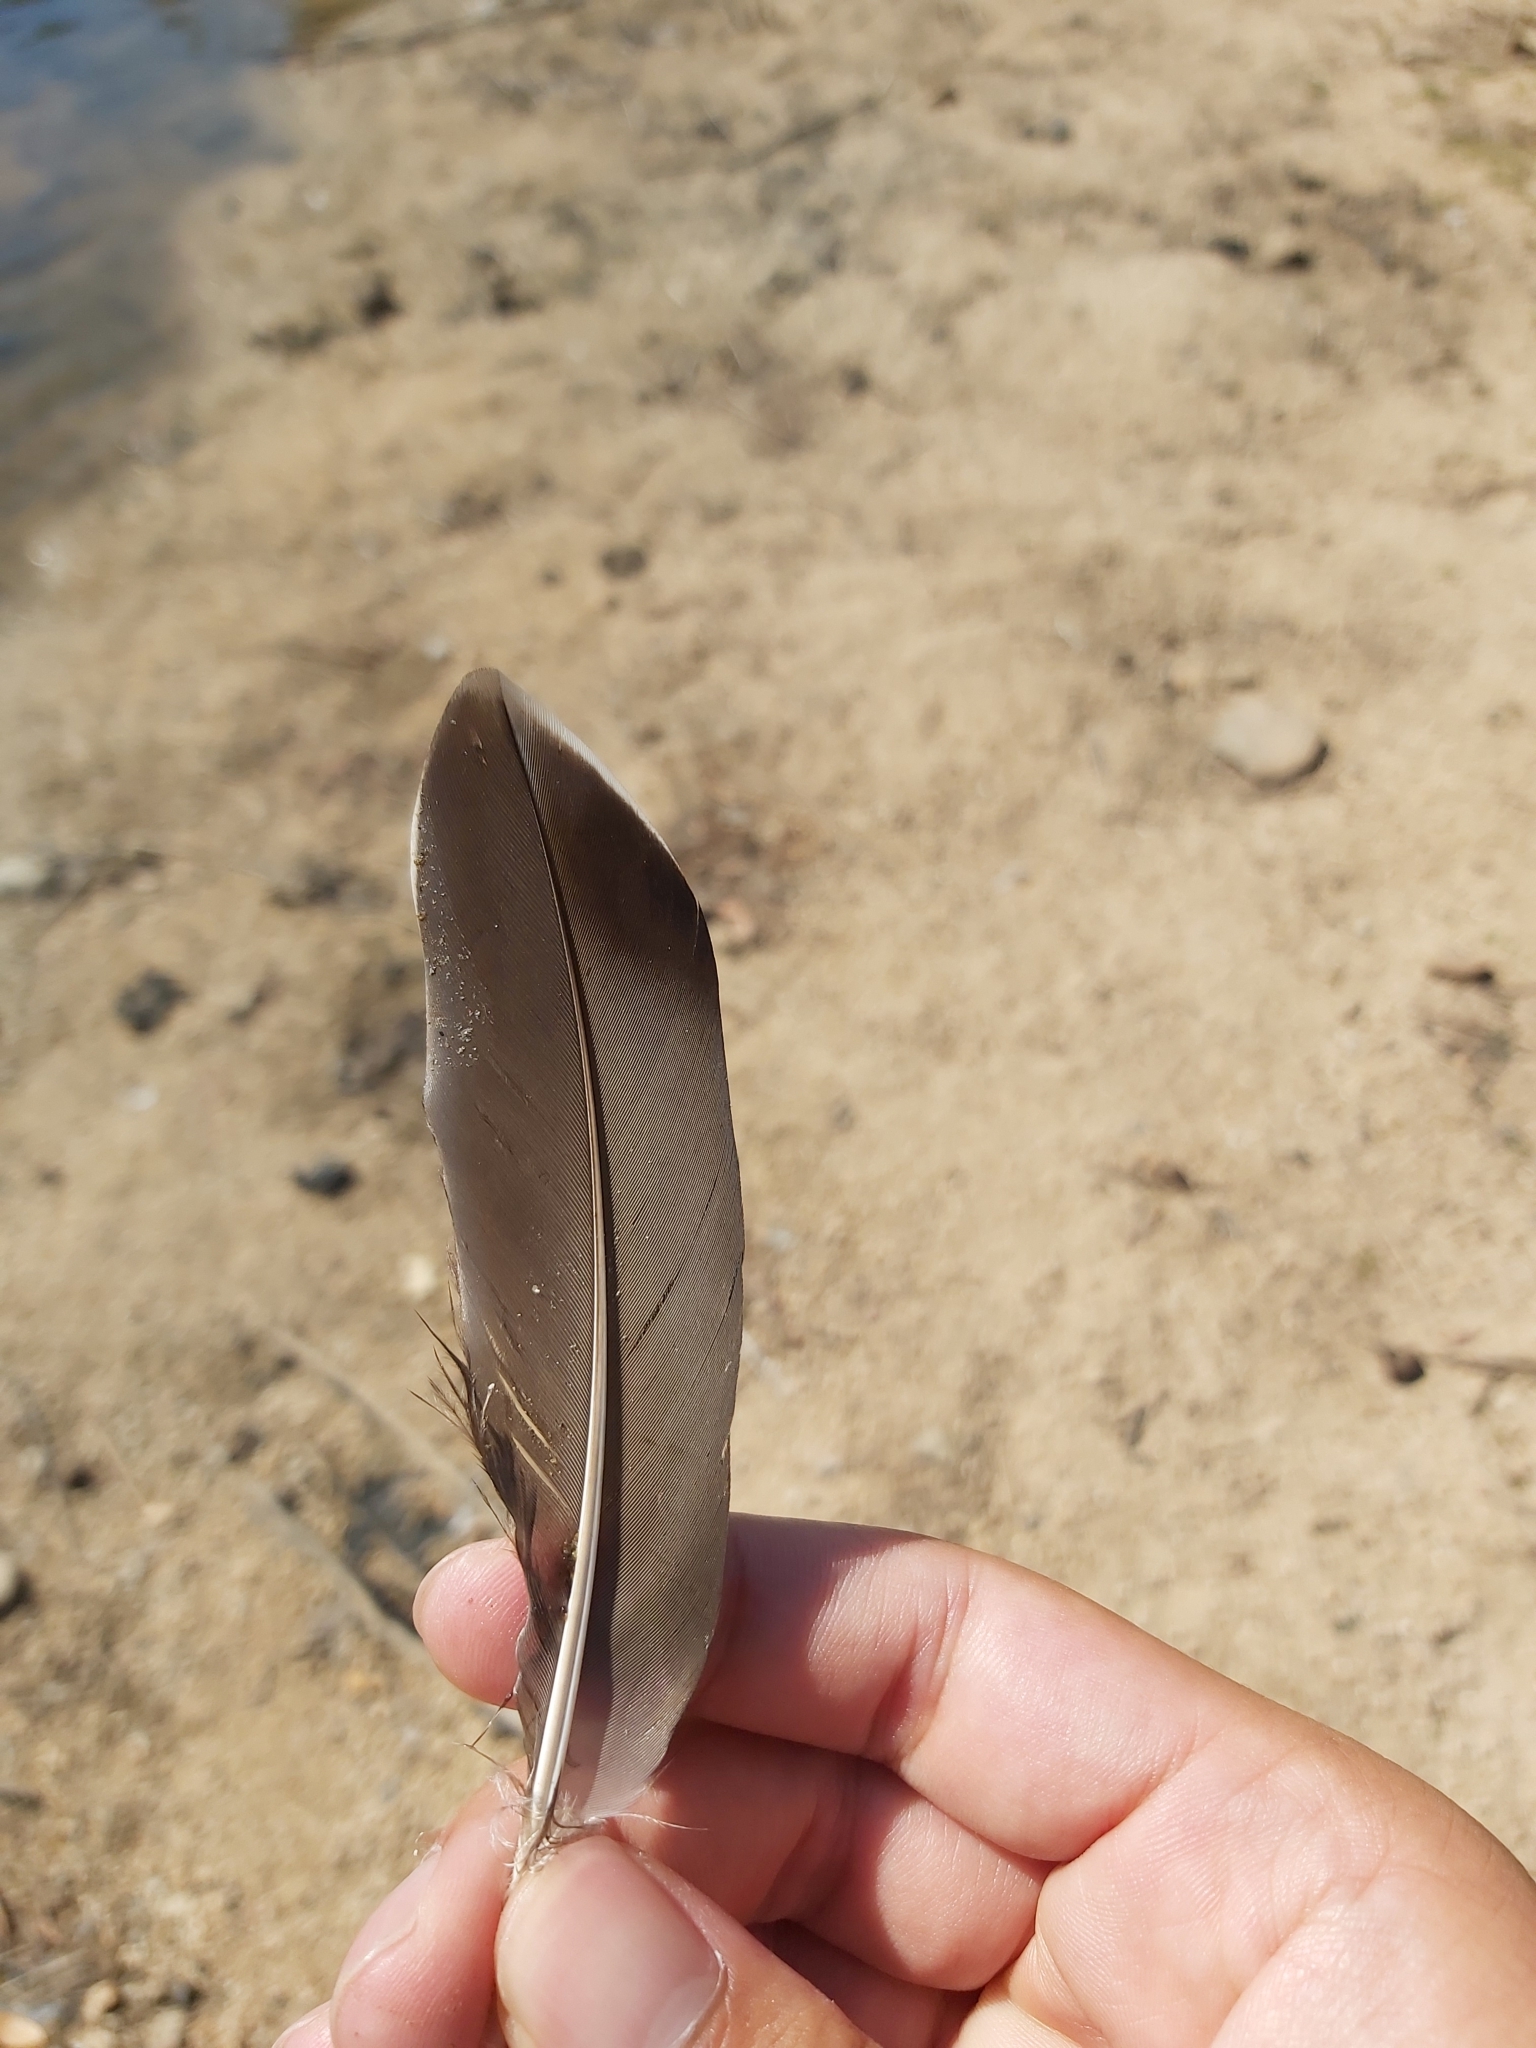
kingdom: Animalia
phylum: Chordata
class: Aves
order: Anseriformes
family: Anatidae
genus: Anas
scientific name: Anas superciliosa
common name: Pacific black duck
